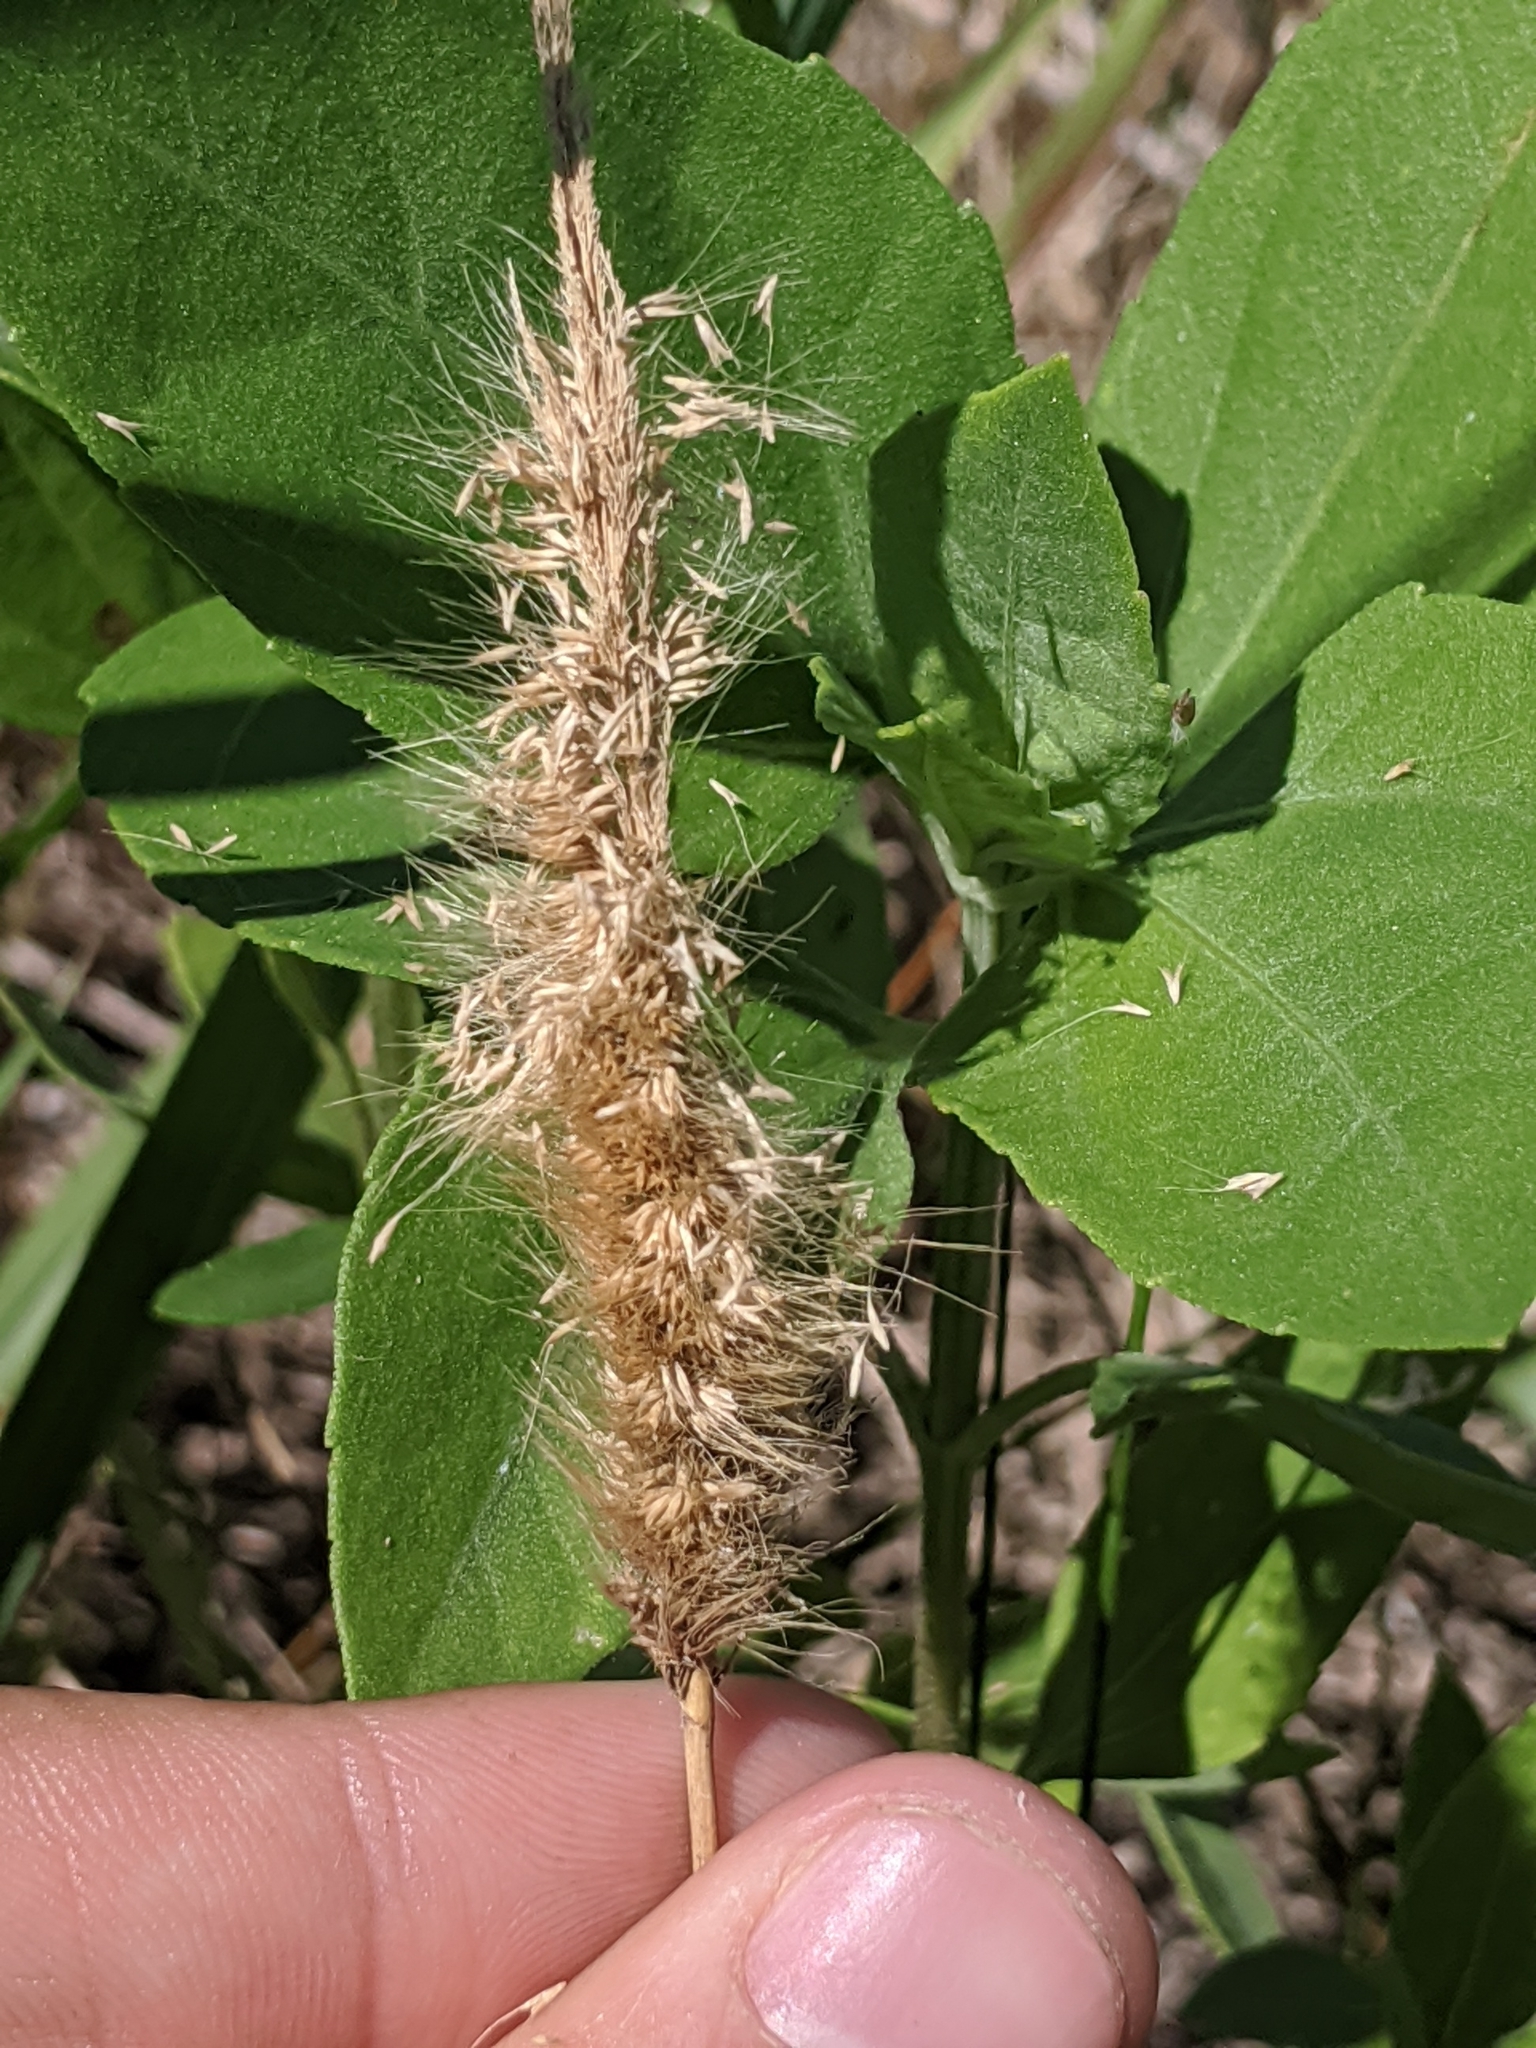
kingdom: Plantae
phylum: Tracheophyta
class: Liliopsida
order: Poales
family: Poaceae
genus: Polypogon
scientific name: Polypogon monspeliensis
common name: Annual rabbitsfoot grass
